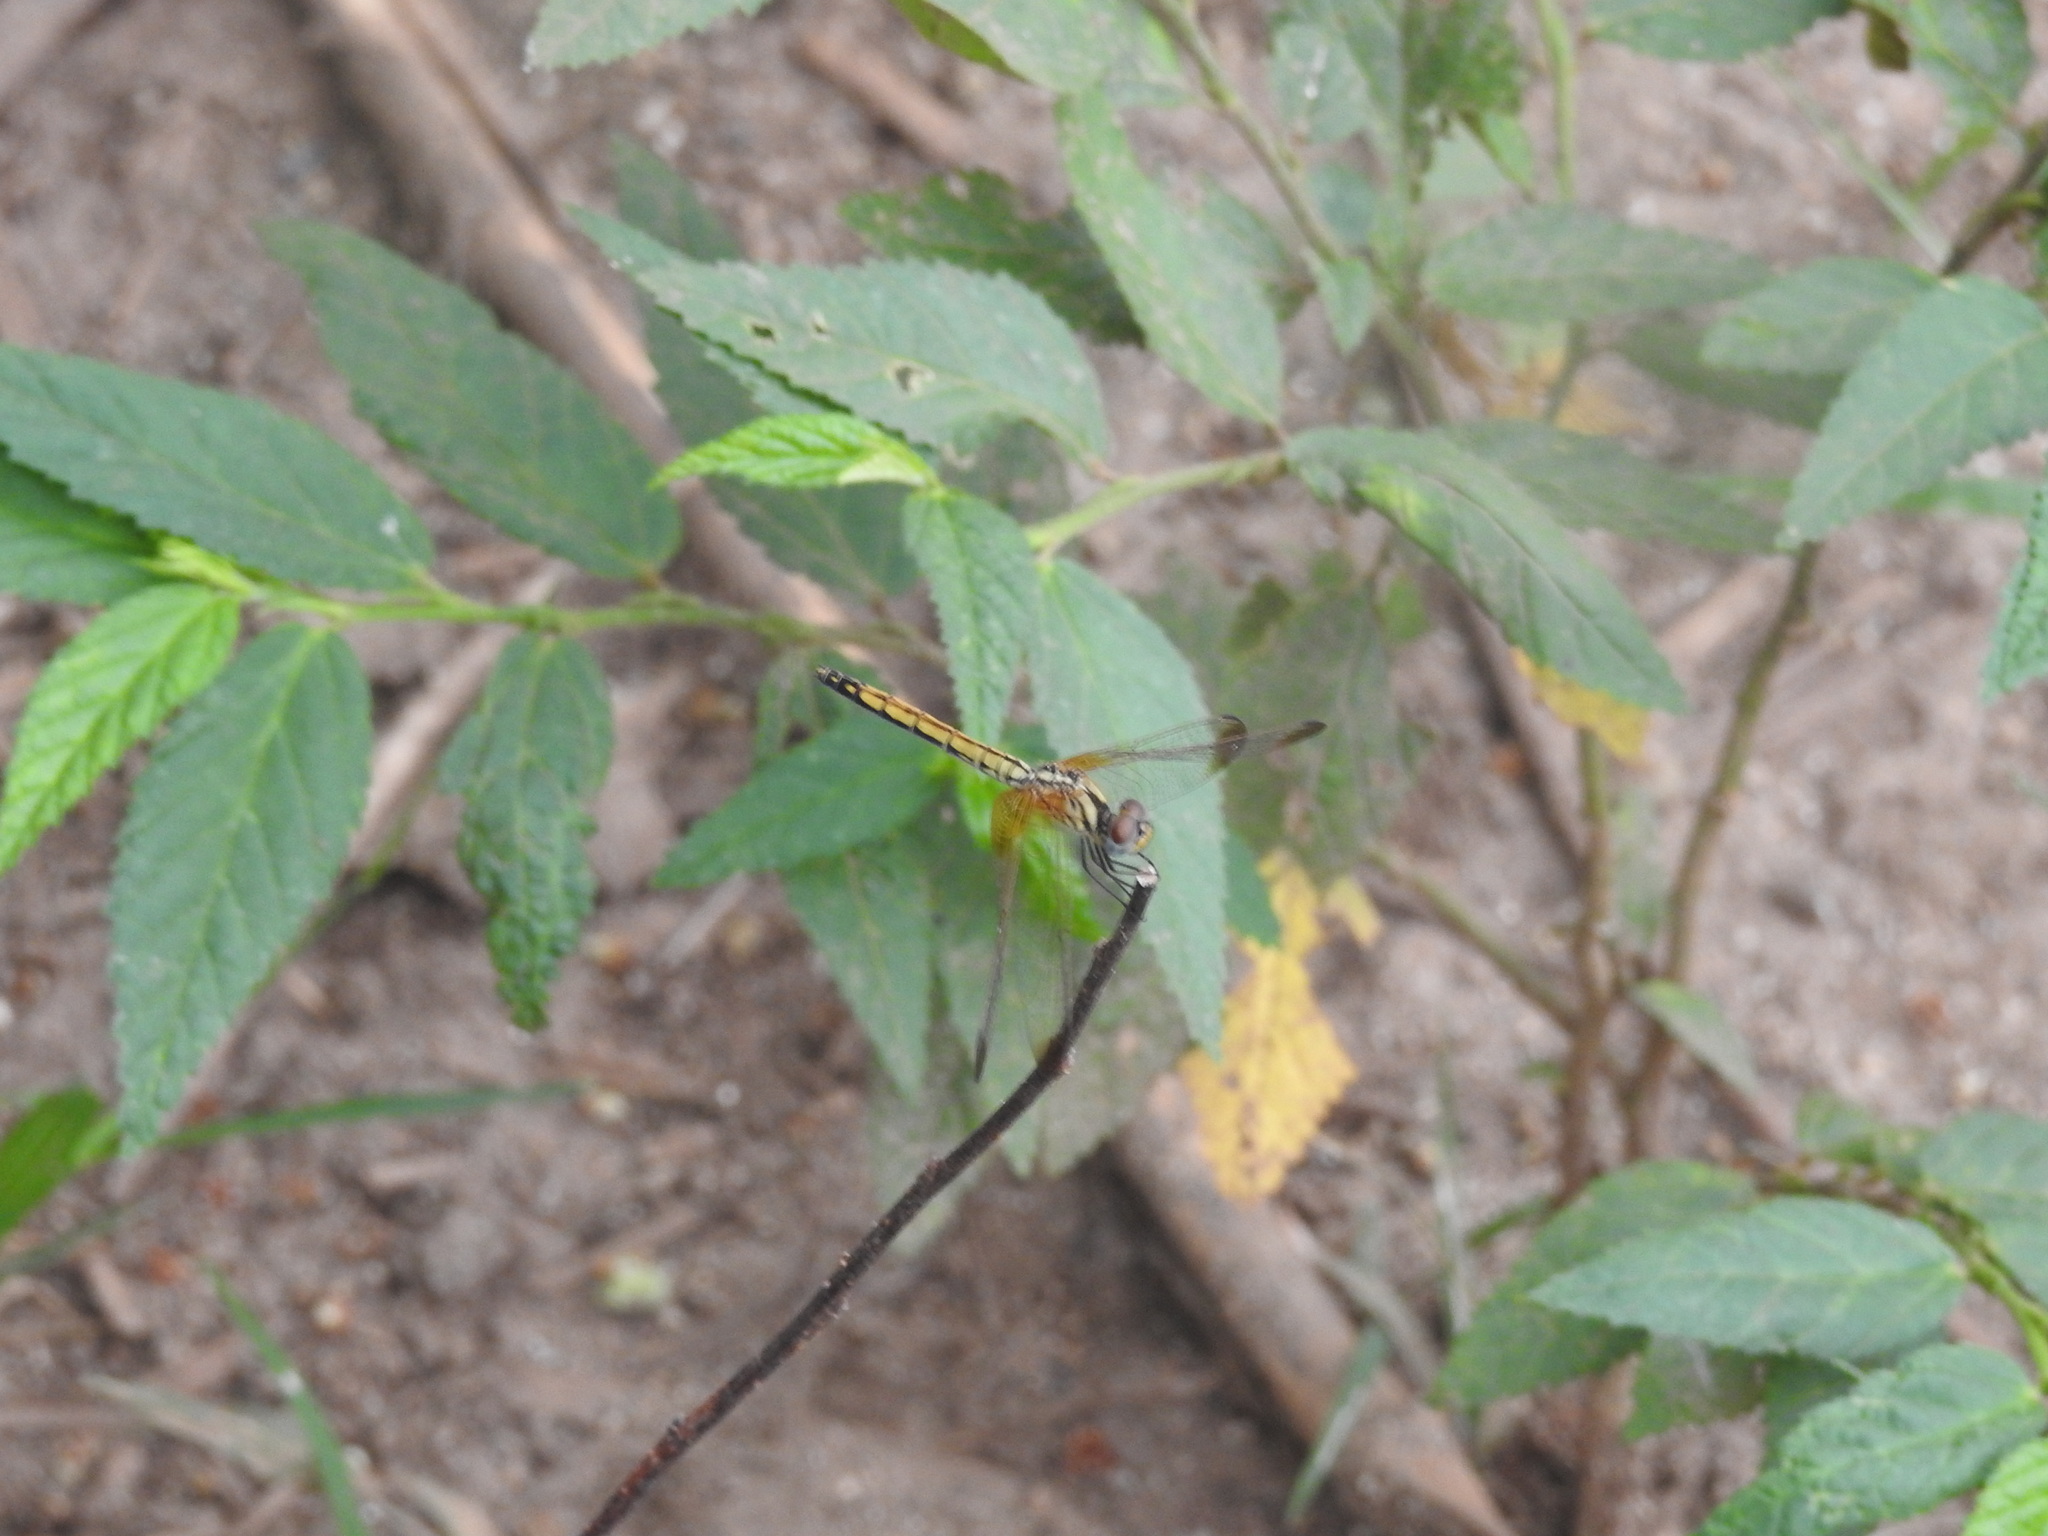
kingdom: Animalia
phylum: Arthropoda
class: Insecta
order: Odonata
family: Libellulidae
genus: Trithemis
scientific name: Trithemis aurora
